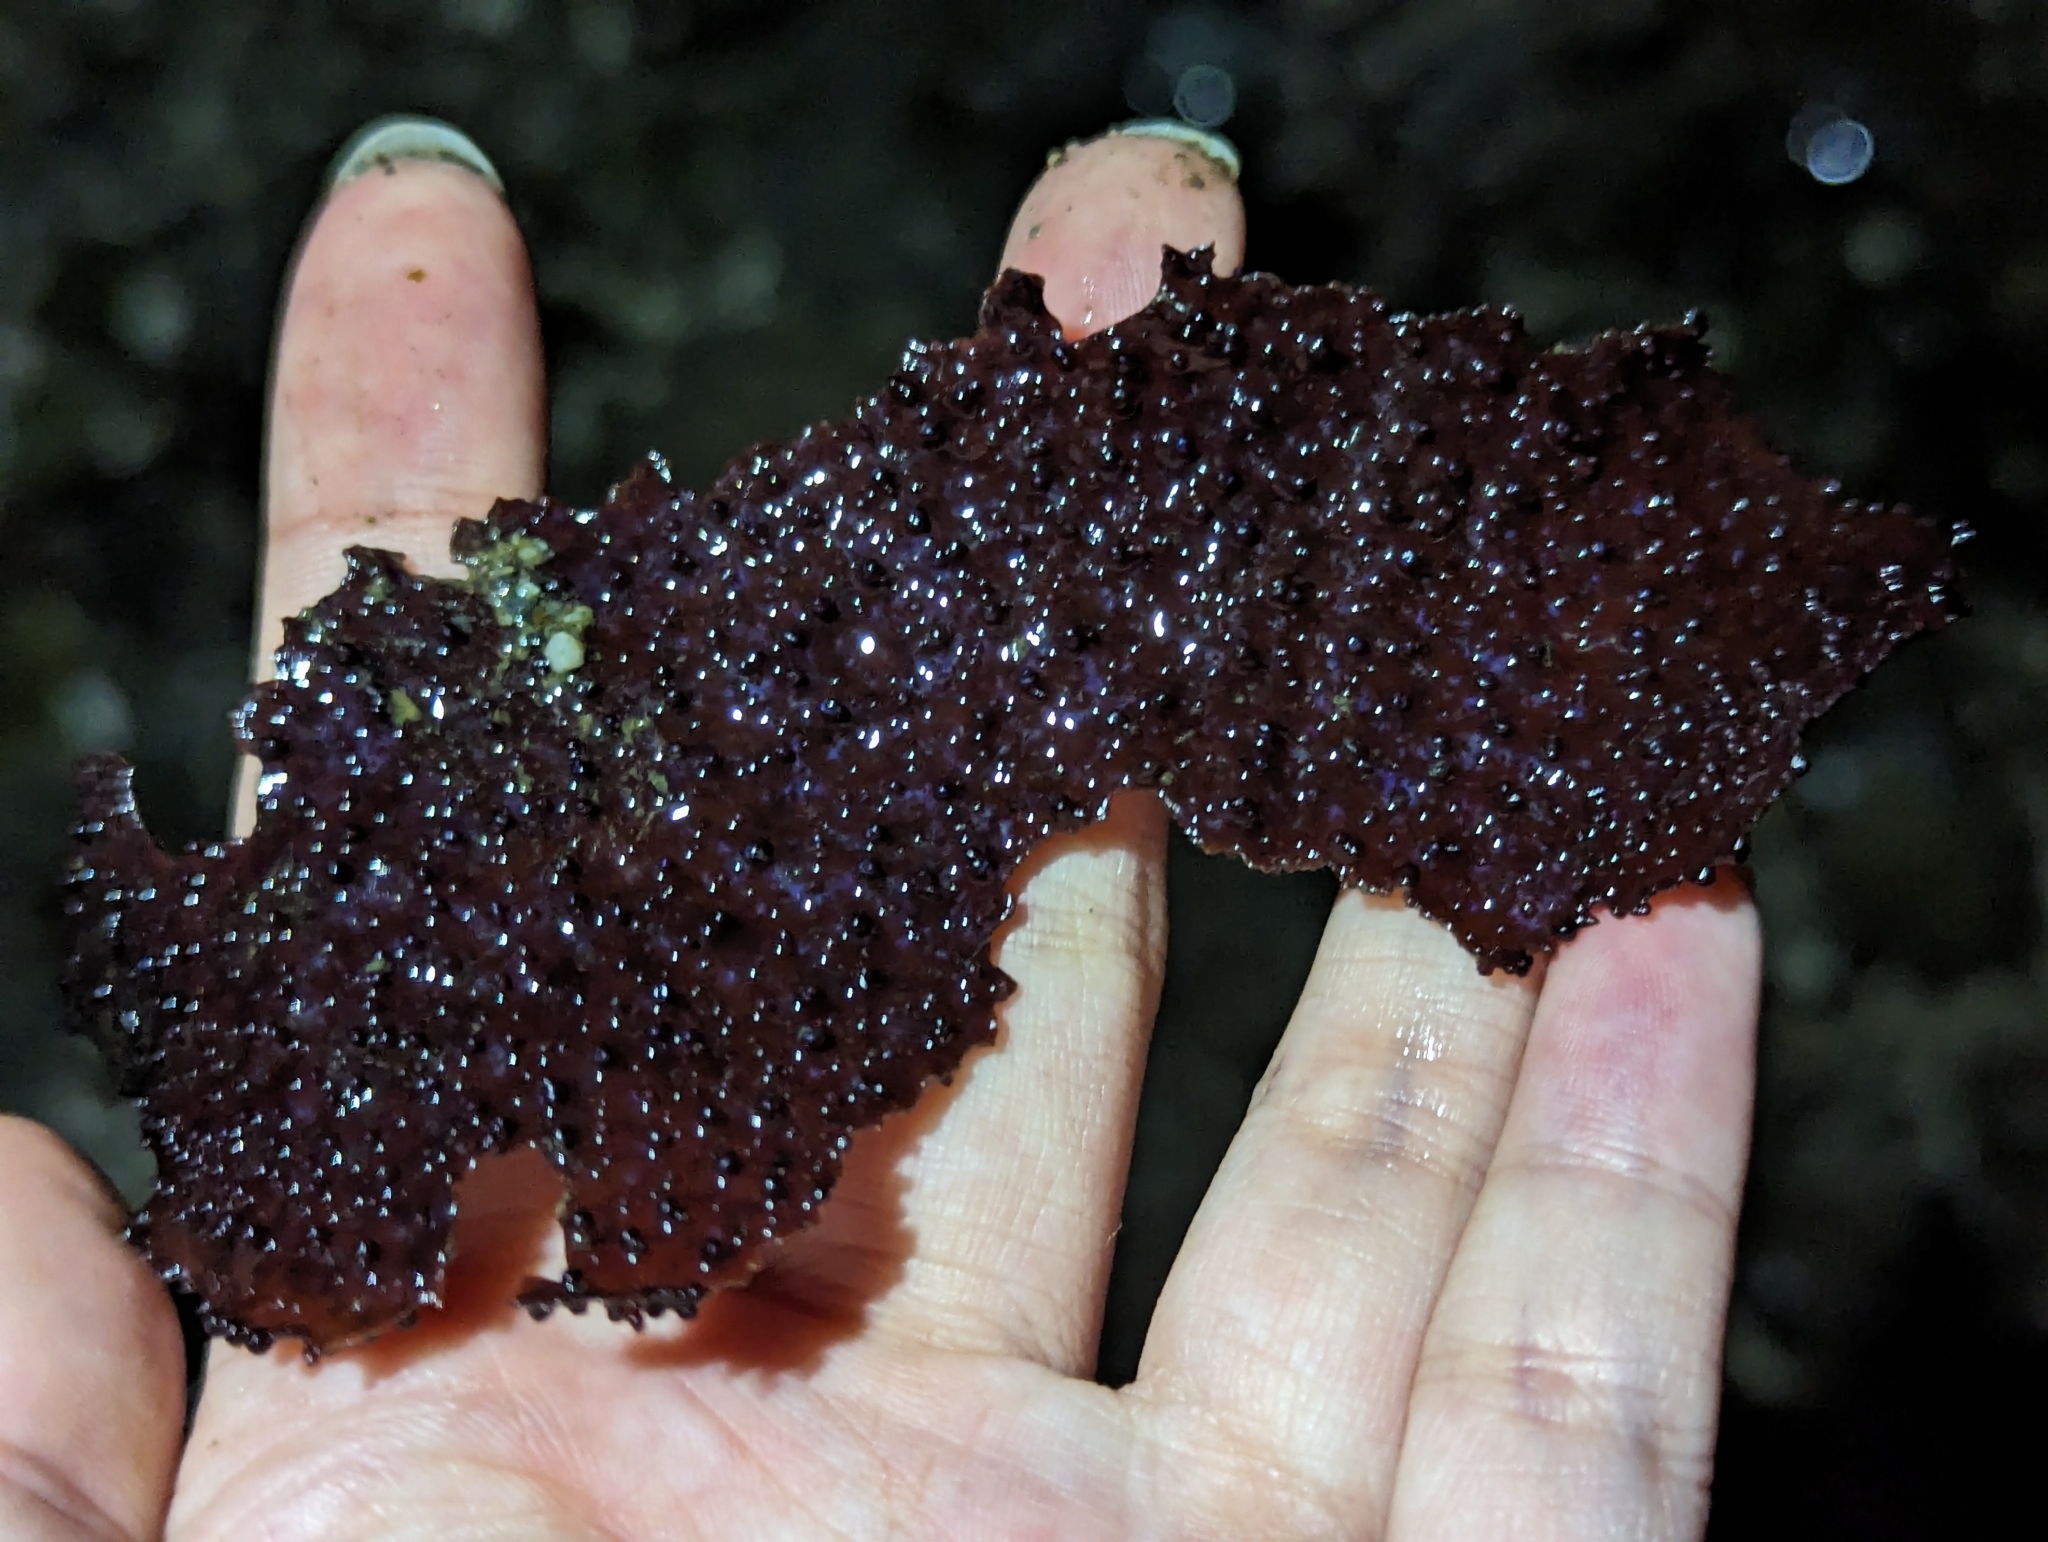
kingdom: Plantae
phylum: Rhodophyta
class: Florideophyceae
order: Gigartinales
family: Gigartinaceae
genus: Chondracanthus
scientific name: Chondracanthus exasperatus
